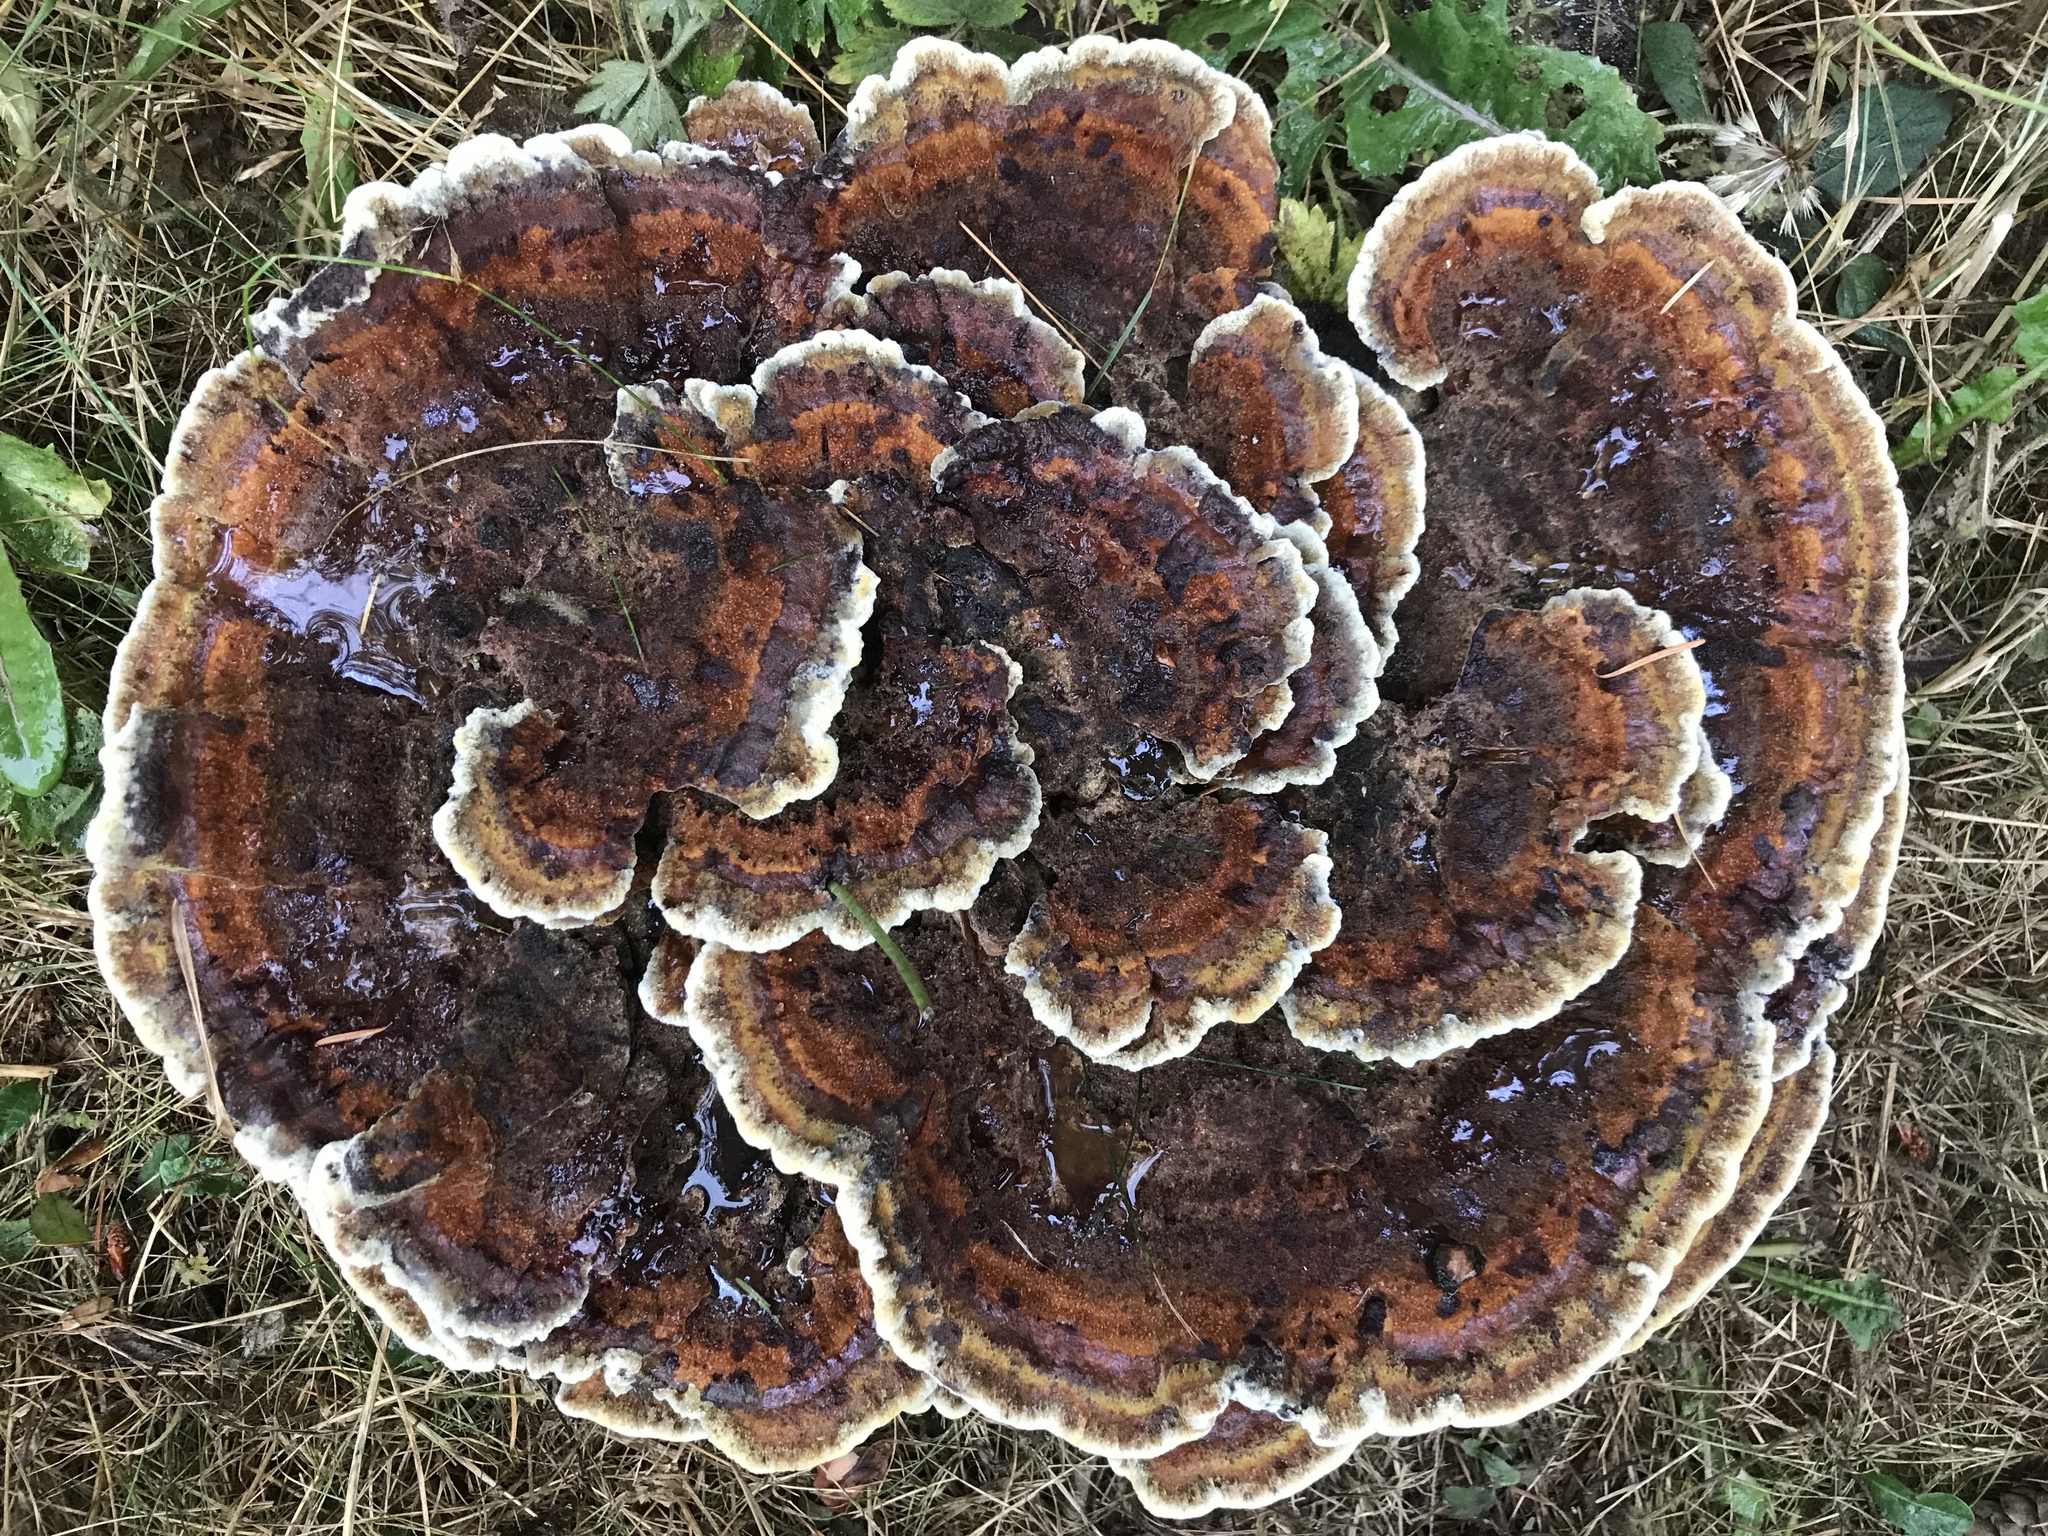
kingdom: Fungi
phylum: Basidiomycota
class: Agaricomycetes
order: Polyporales
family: Laetiporaceae
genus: Phaeolus
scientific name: Phaeolus schweinitzii
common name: Dyer's mazegill
